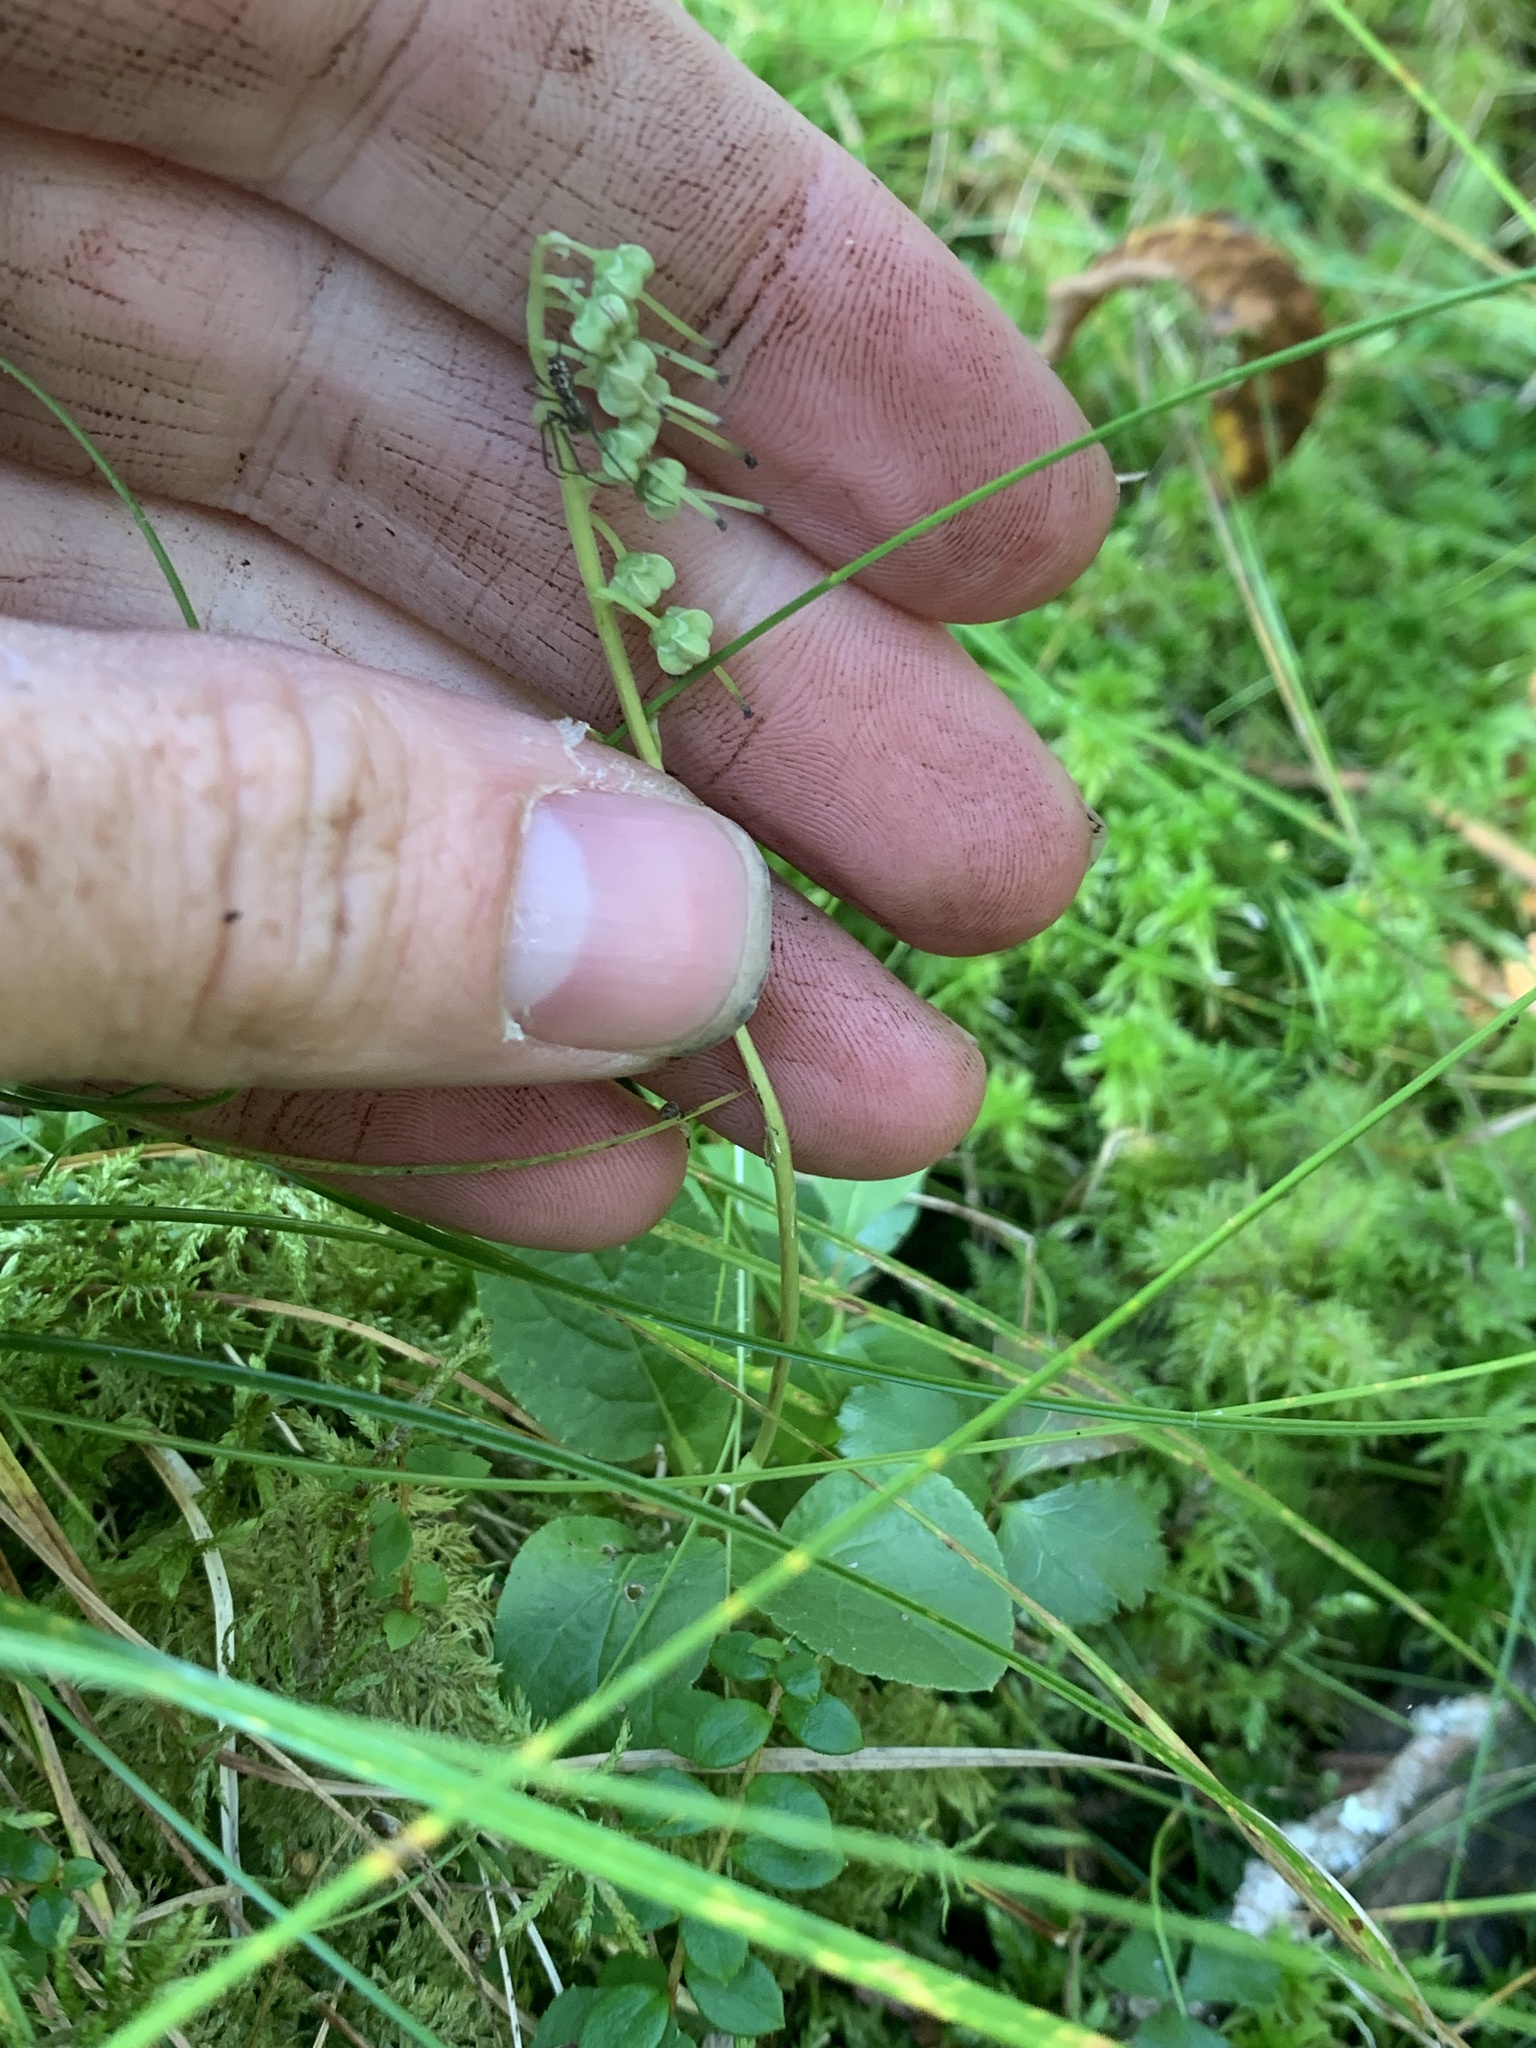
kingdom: Plantae
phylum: Tracheophyta
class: Magnoliopsida
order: Ericales
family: Ericaceae
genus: Orthilia
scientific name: Orthilia secunda
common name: One-sided orthilia
